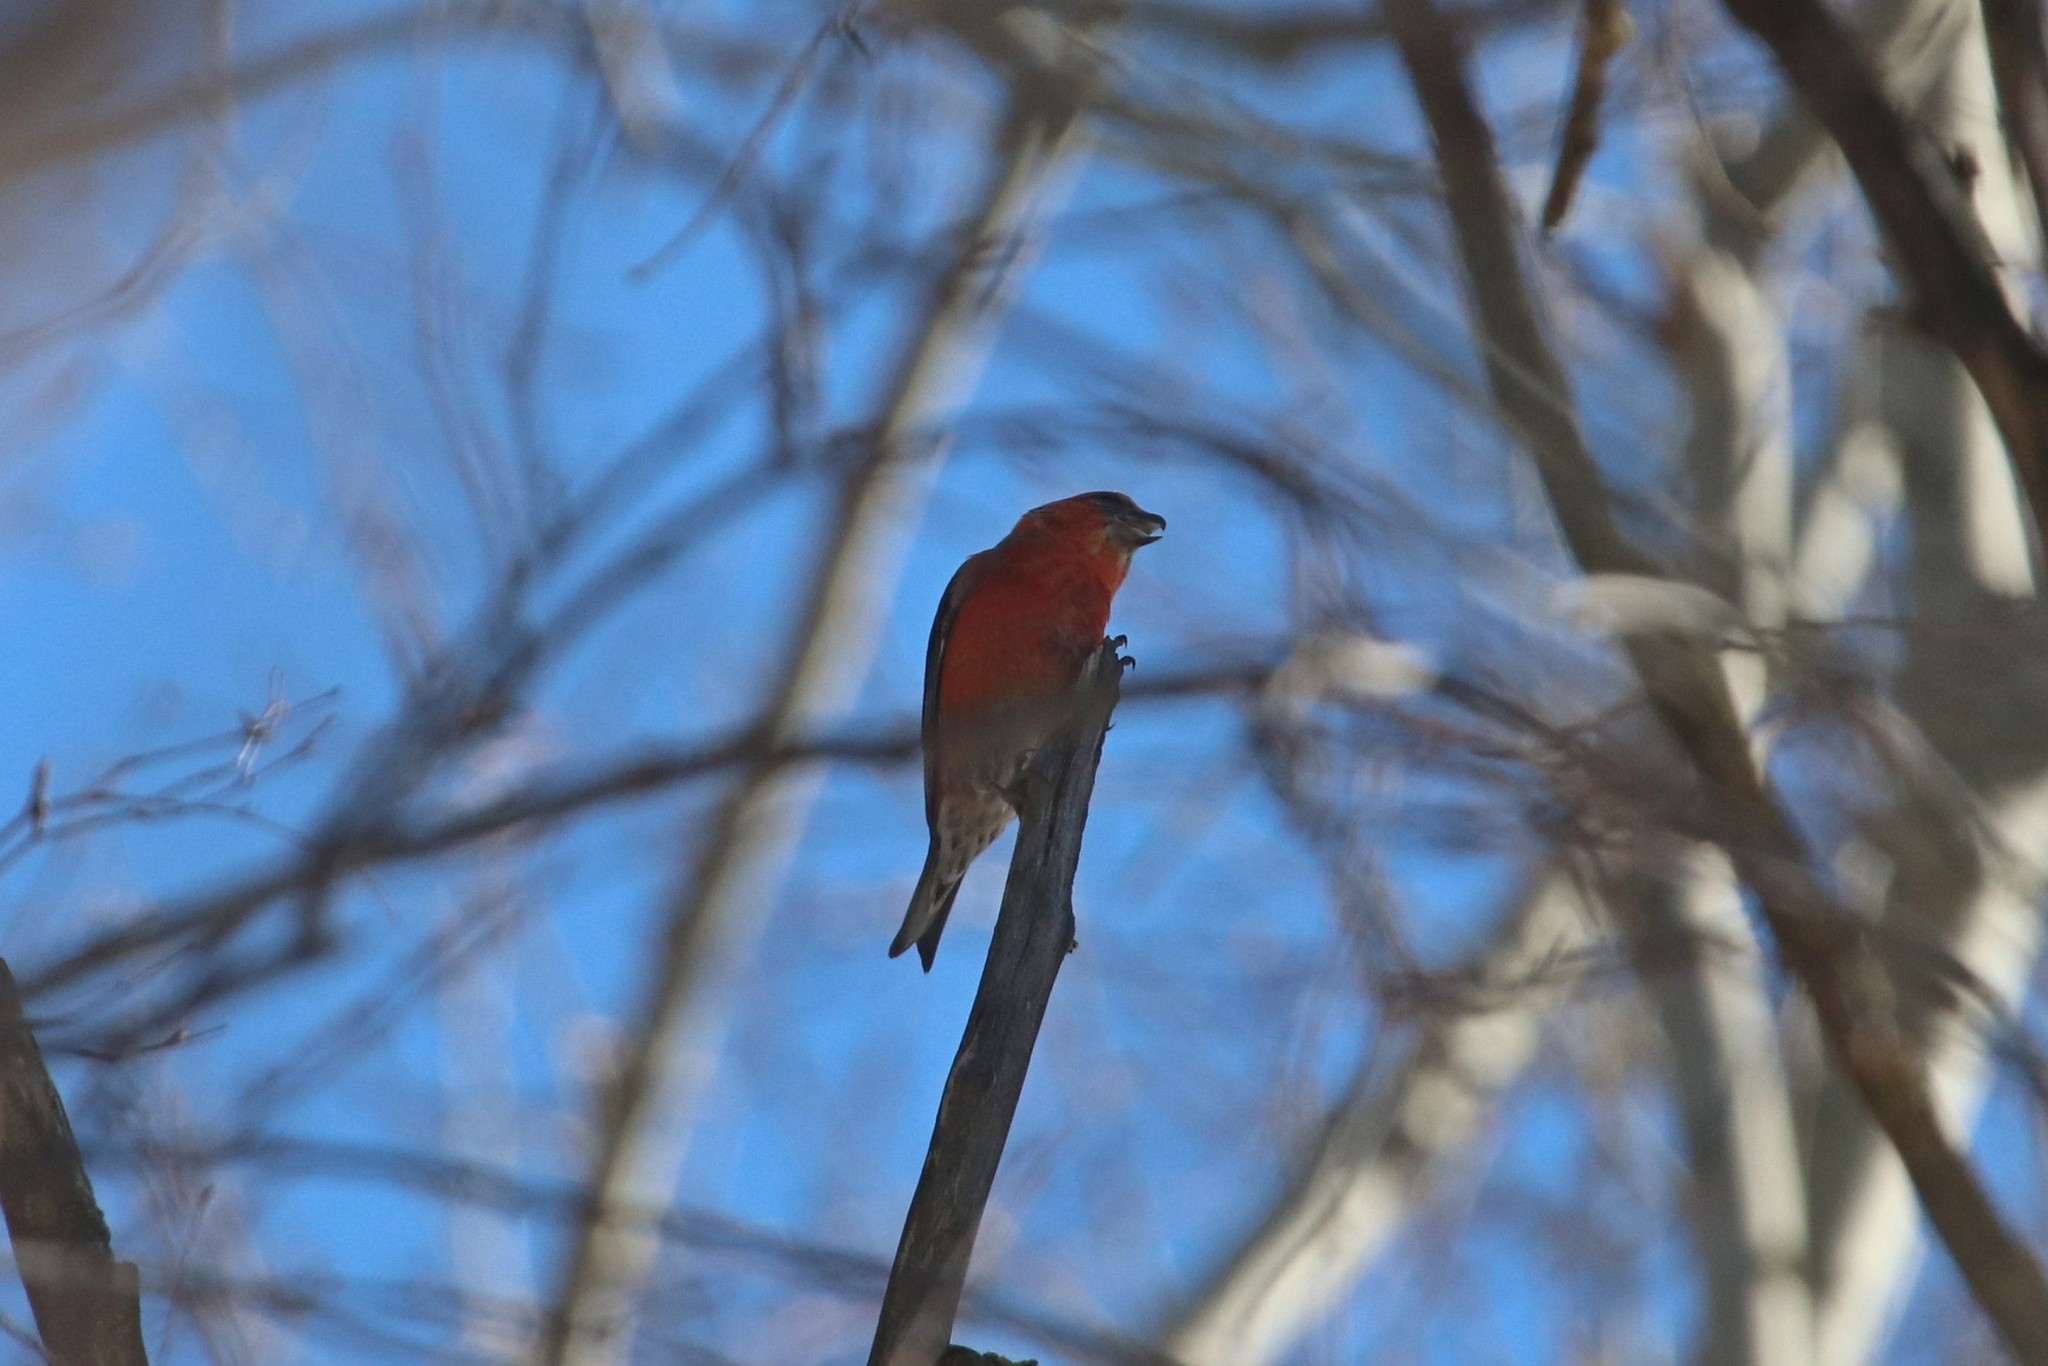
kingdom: Animalia
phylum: Chordata
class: Aves
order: Passeriformes
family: Fringillidae
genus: Loxia
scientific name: Loxia curvirostra
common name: Red crossbill
